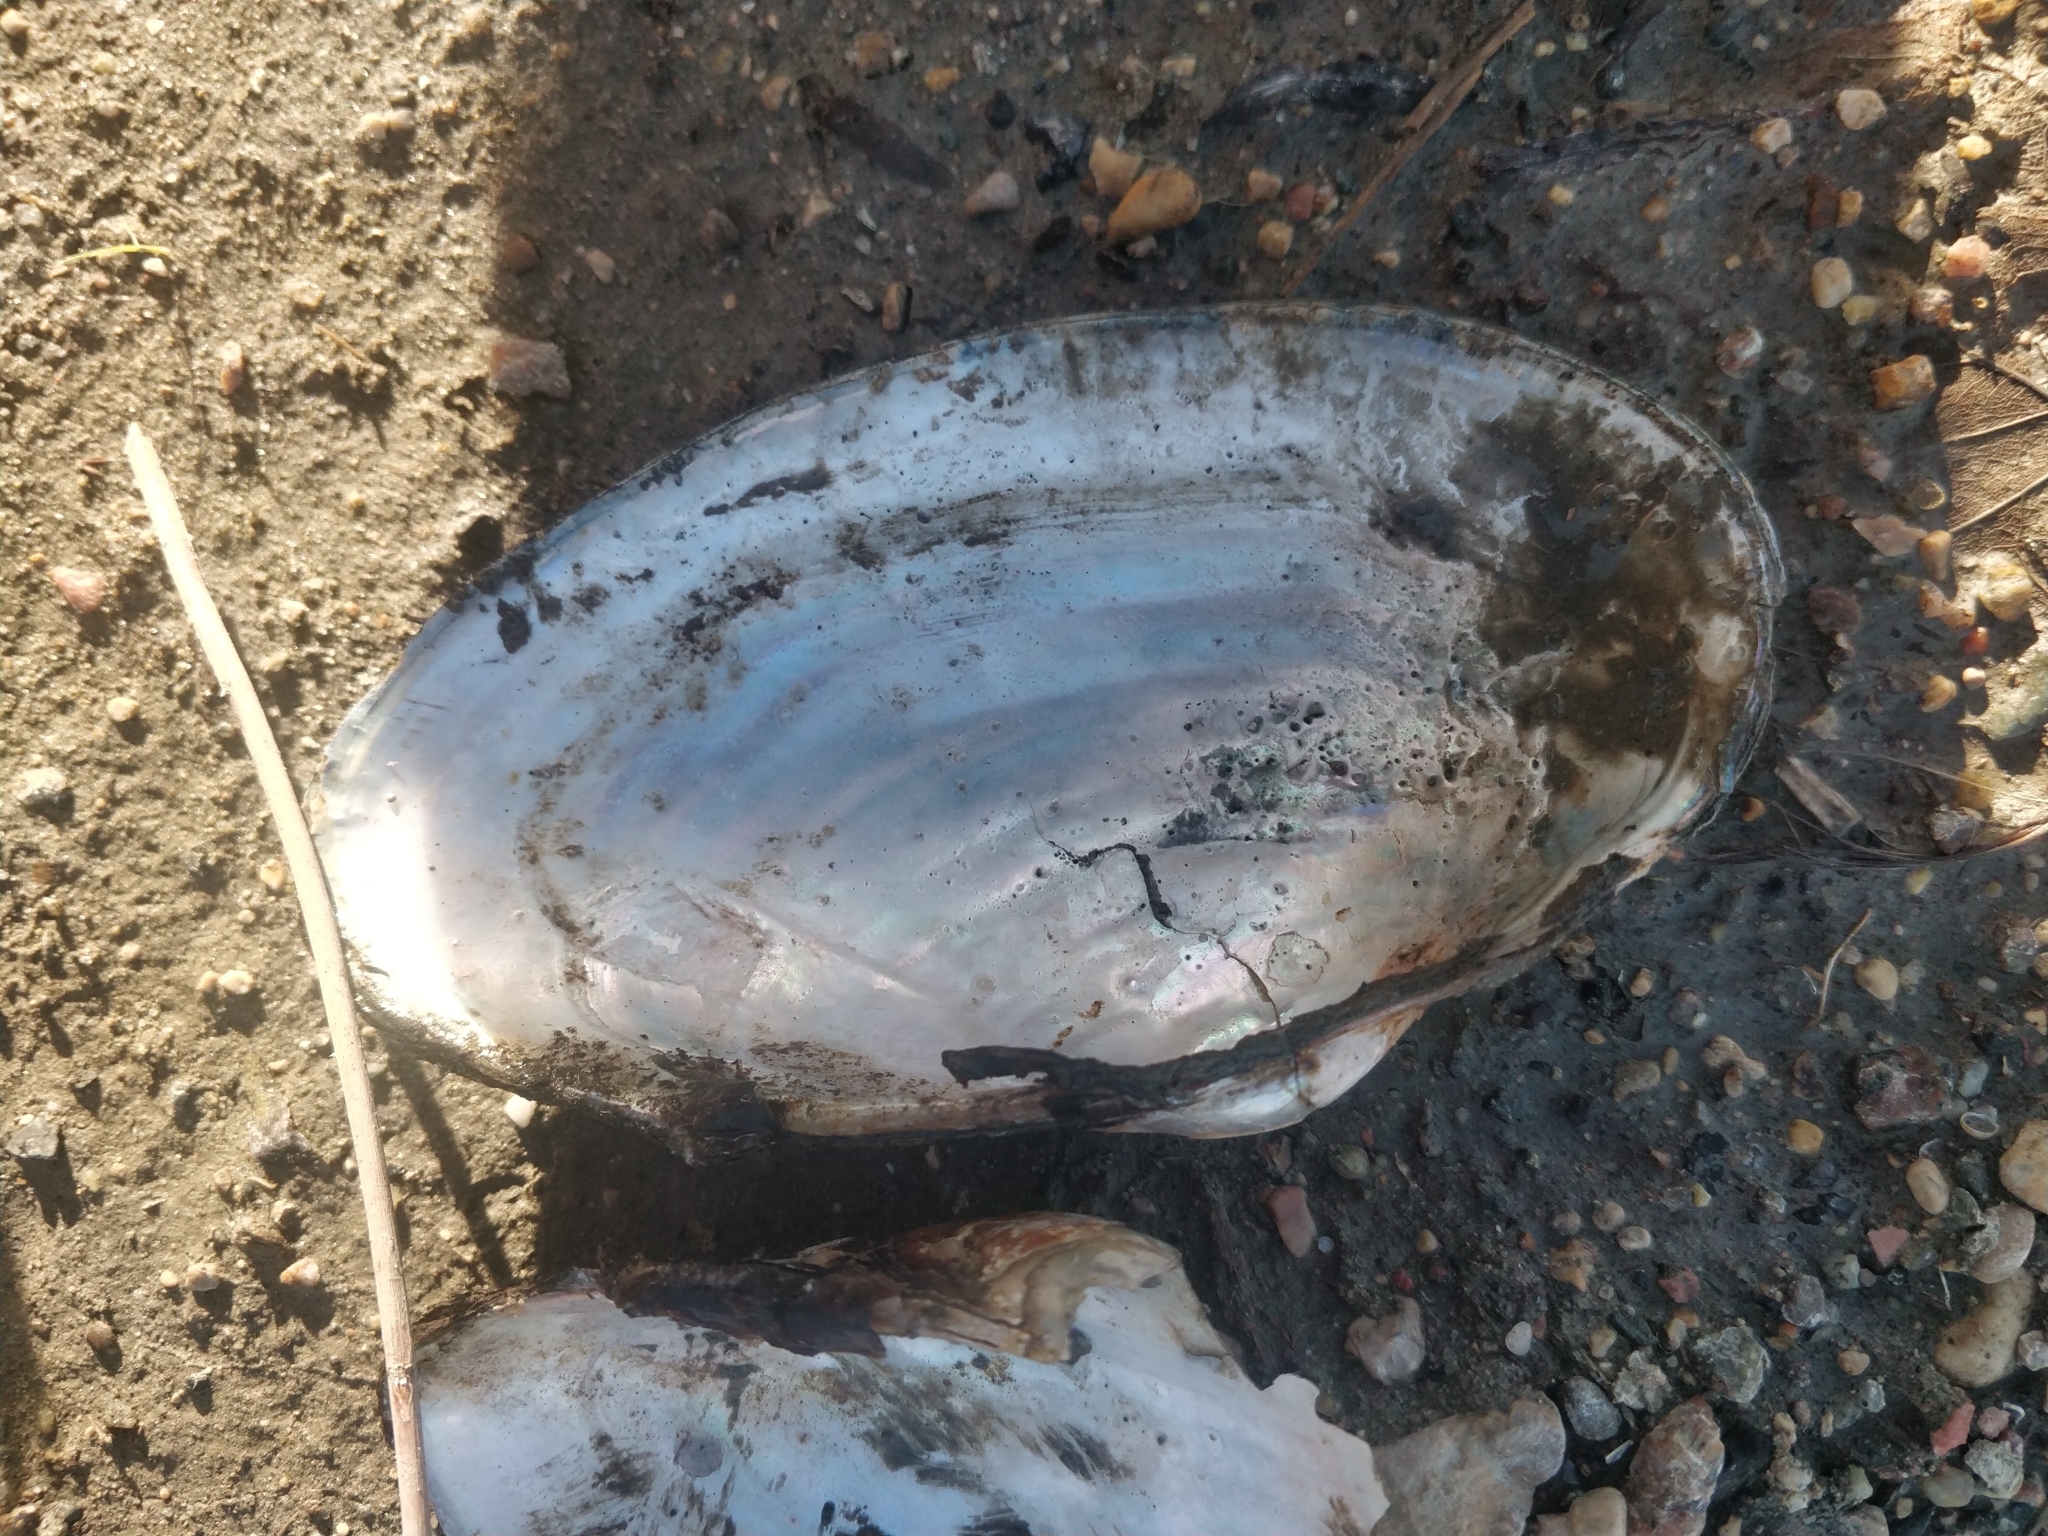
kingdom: Animalia
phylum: Mollusca
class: Bivalvia
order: Unionida
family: Unionidae
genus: Pyganodon
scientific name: Pyganodon grandis
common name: Giant floater
